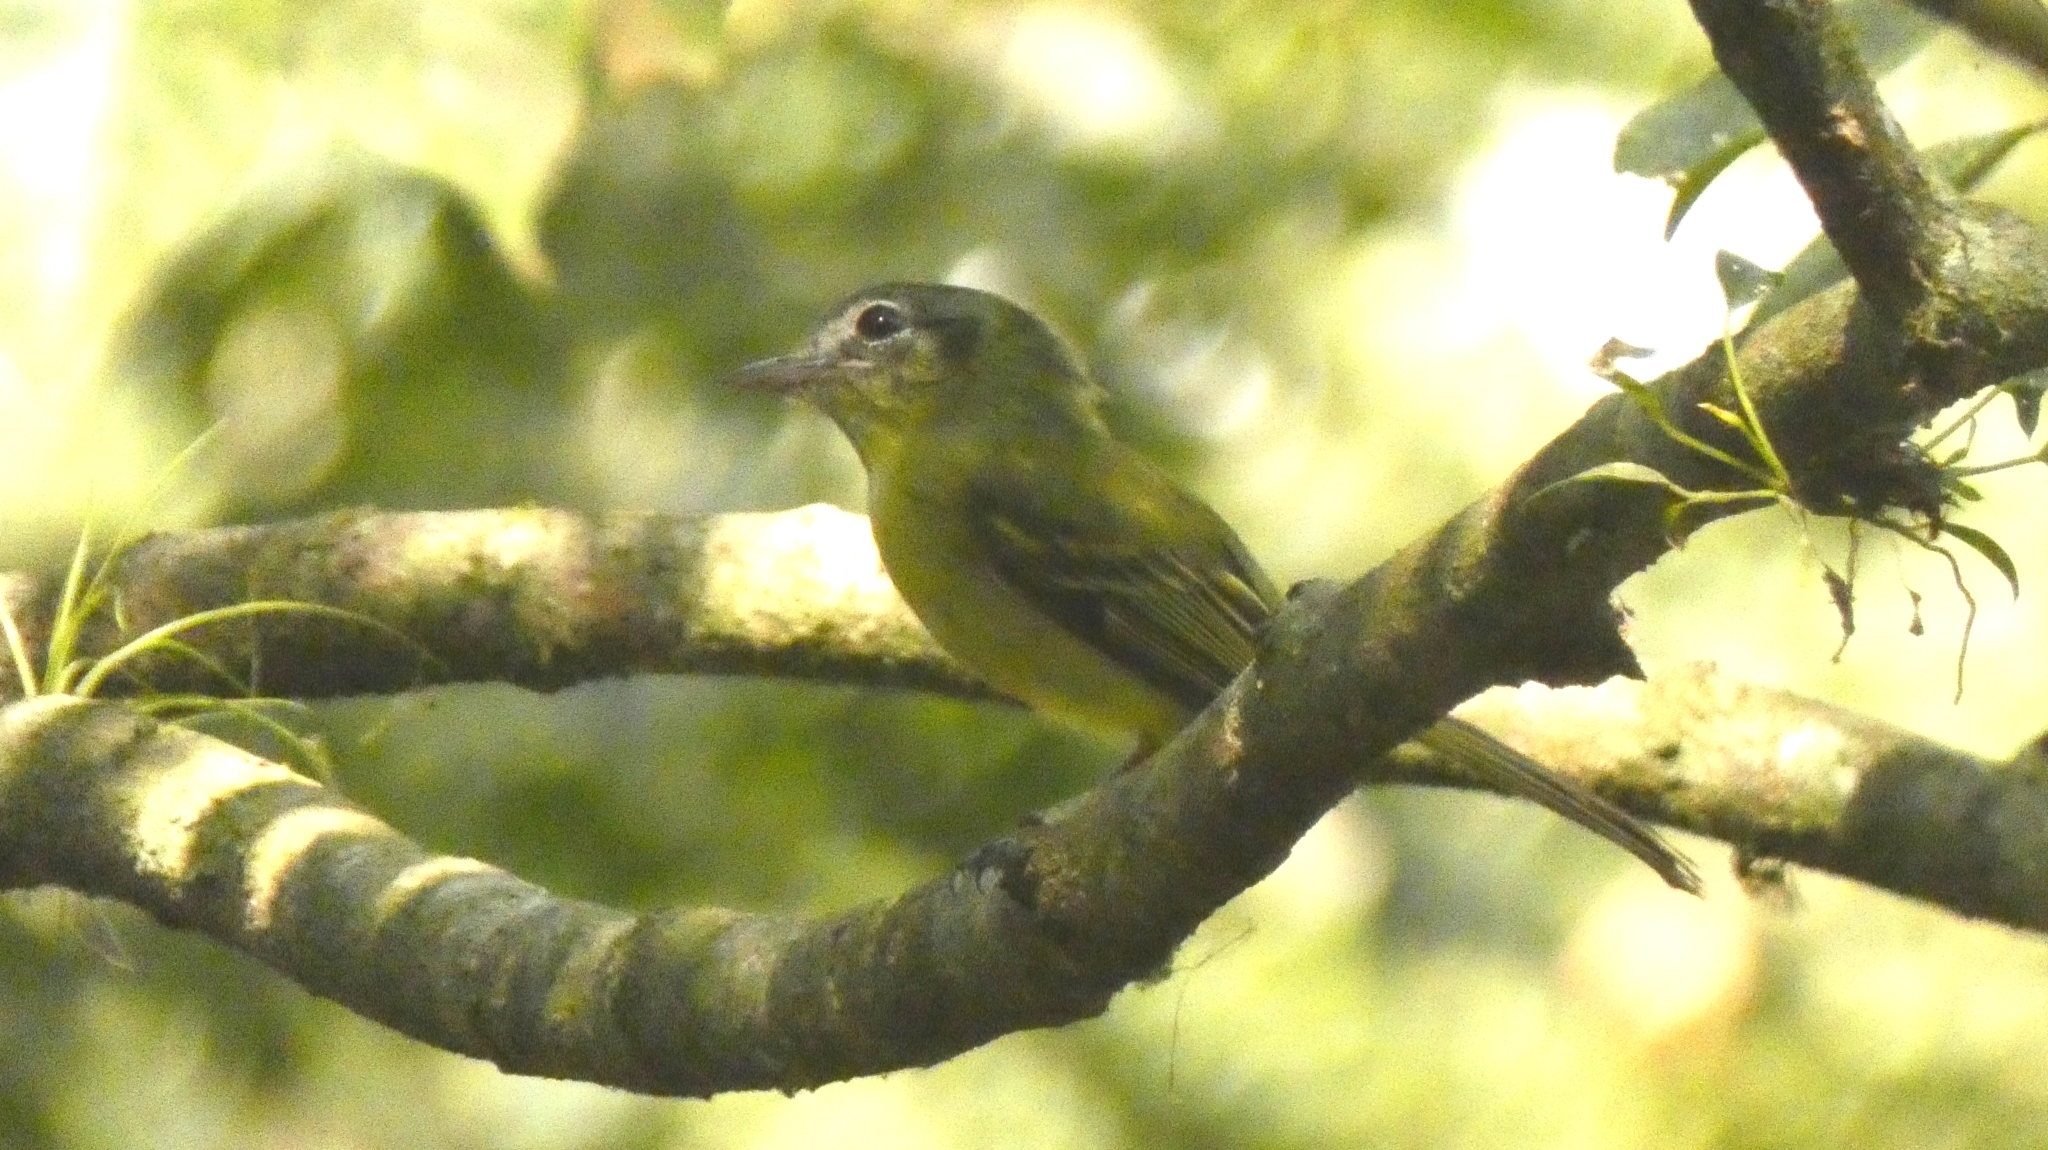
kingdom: Animalia
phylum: Chordata
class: Aves
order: Passeriformes
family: Tyrannidae
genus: Tolmomyias
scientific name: Tolmomyias sulphurescens
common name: Yellow-olive flycatcher
